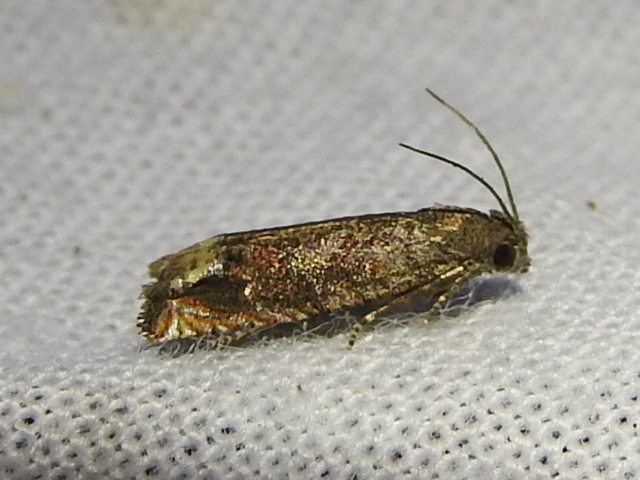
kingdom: Animalia
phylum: Arthropoda
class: Insecta
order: Lepidoptera
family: Tortricidae
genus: Epiblema
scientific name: Epiblema strenuana
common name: Ragweed borer moth
